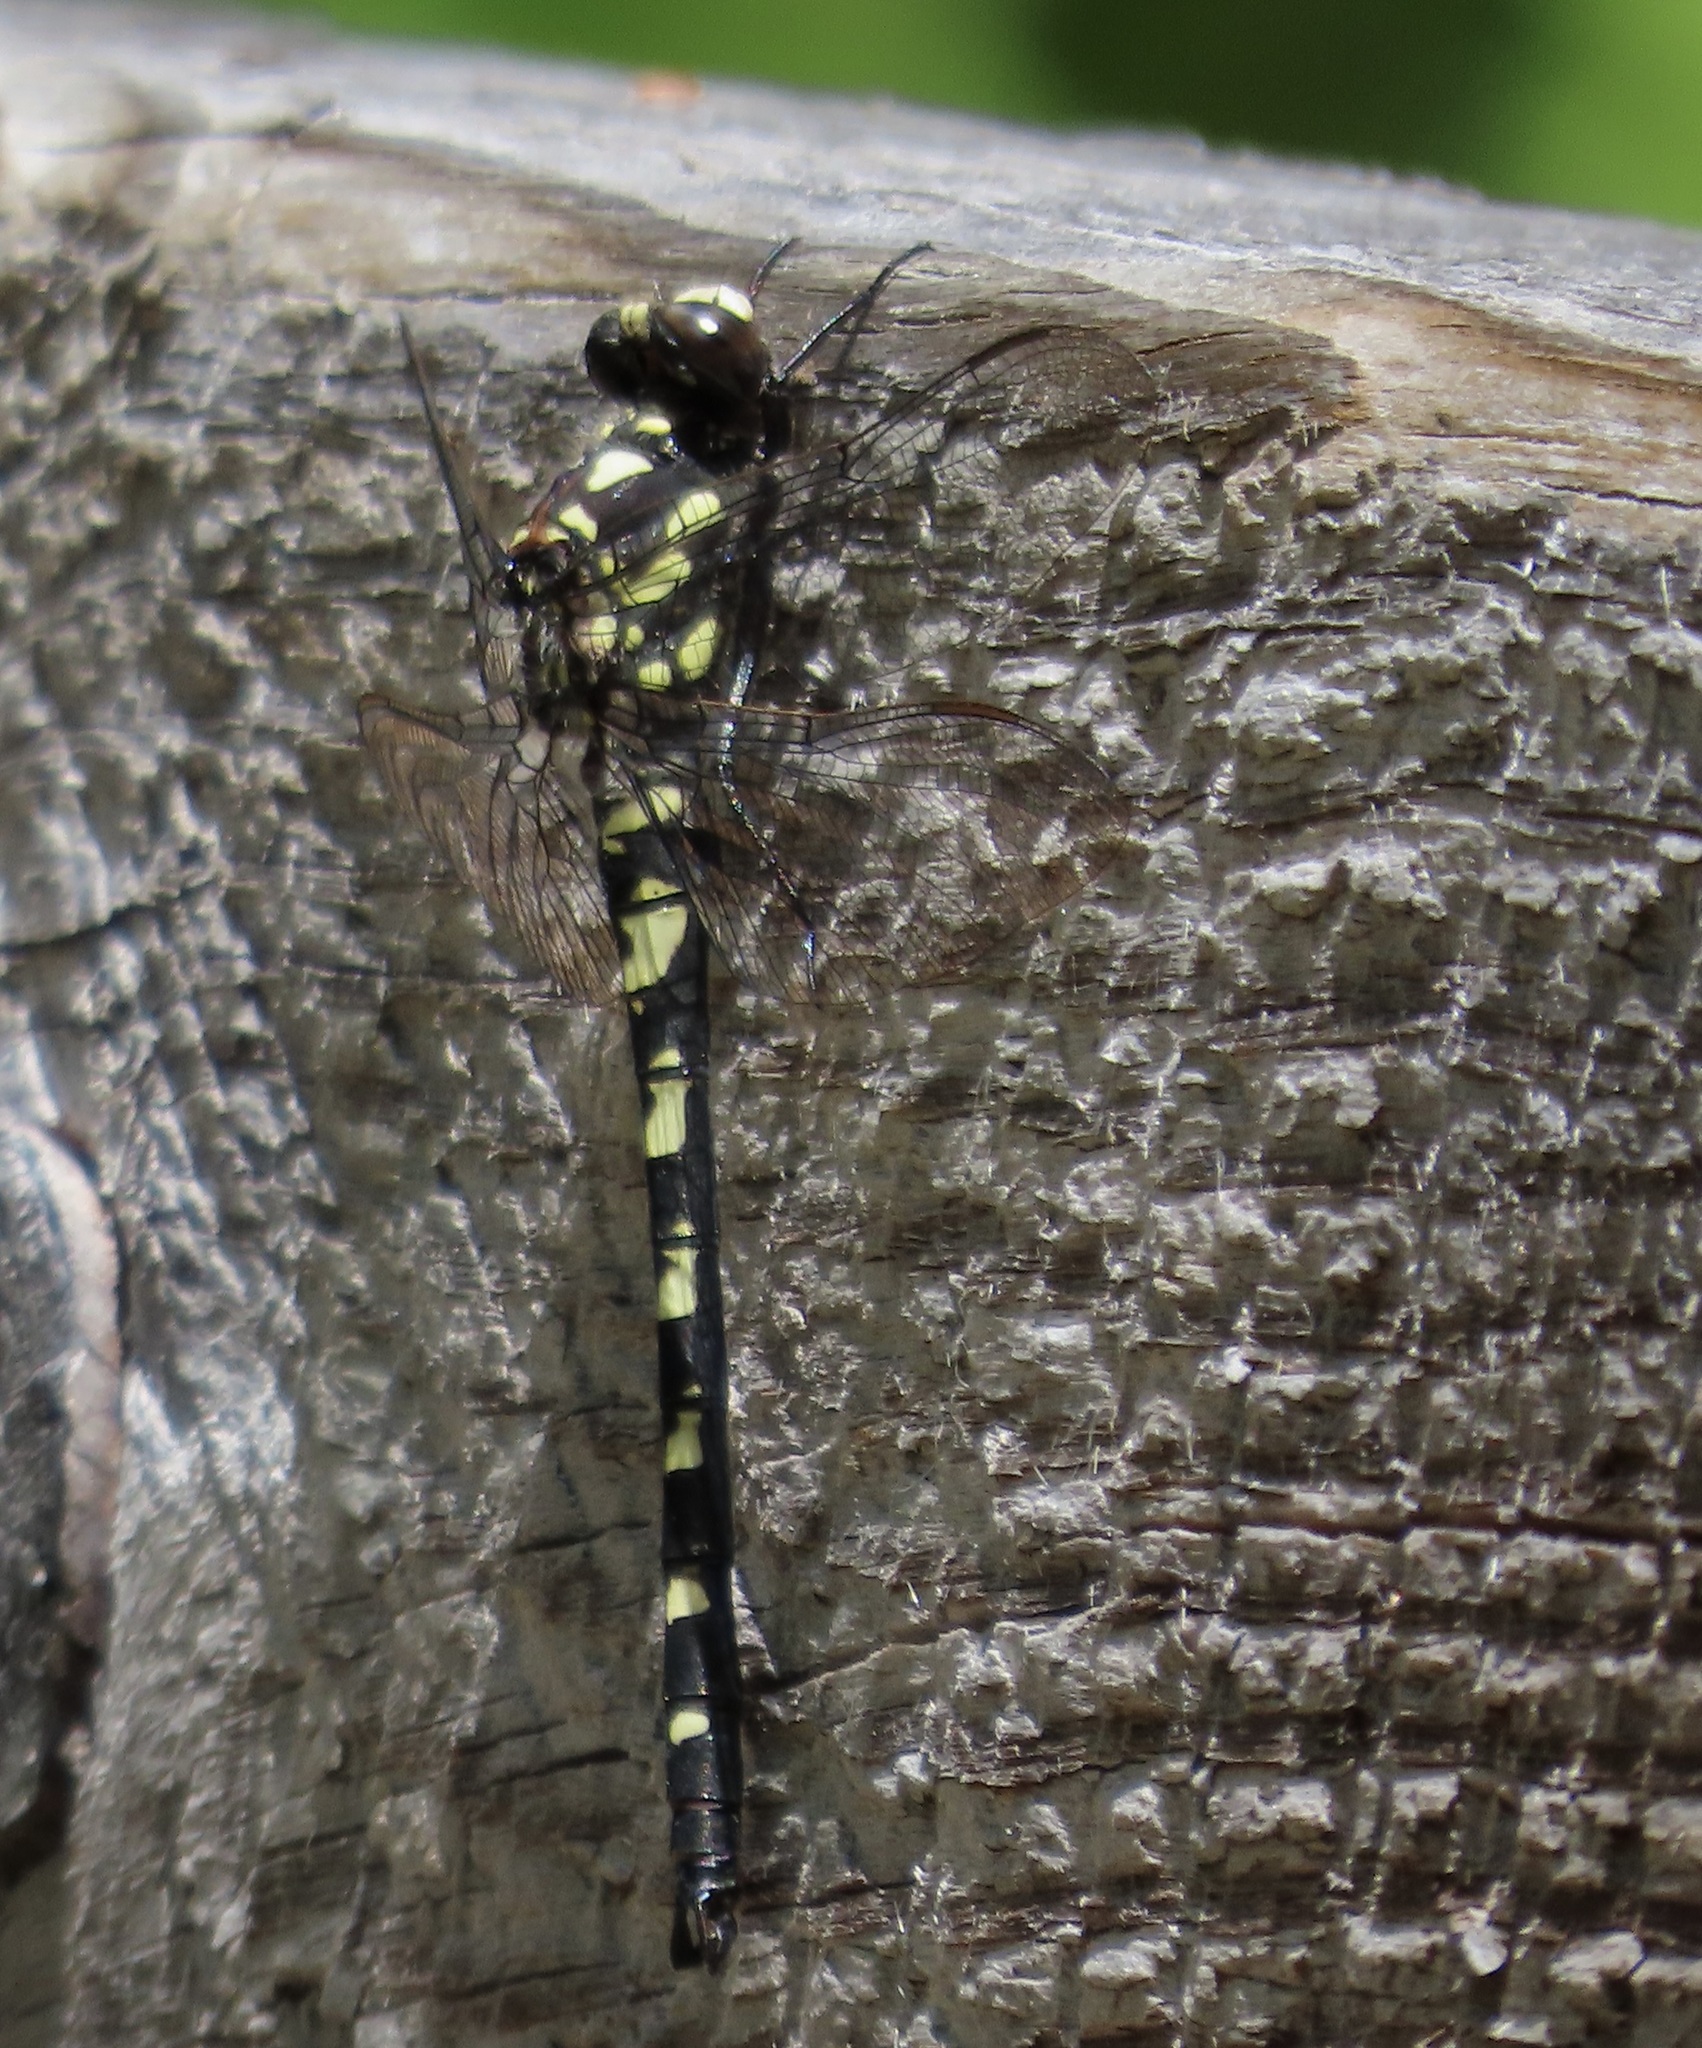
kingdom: Animalia
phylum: Arthropoda
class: Insecta
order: Odonata
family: Petaluridae
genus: Tanypteryx
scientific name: Tanypteryx hageni
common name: Black petaltail
